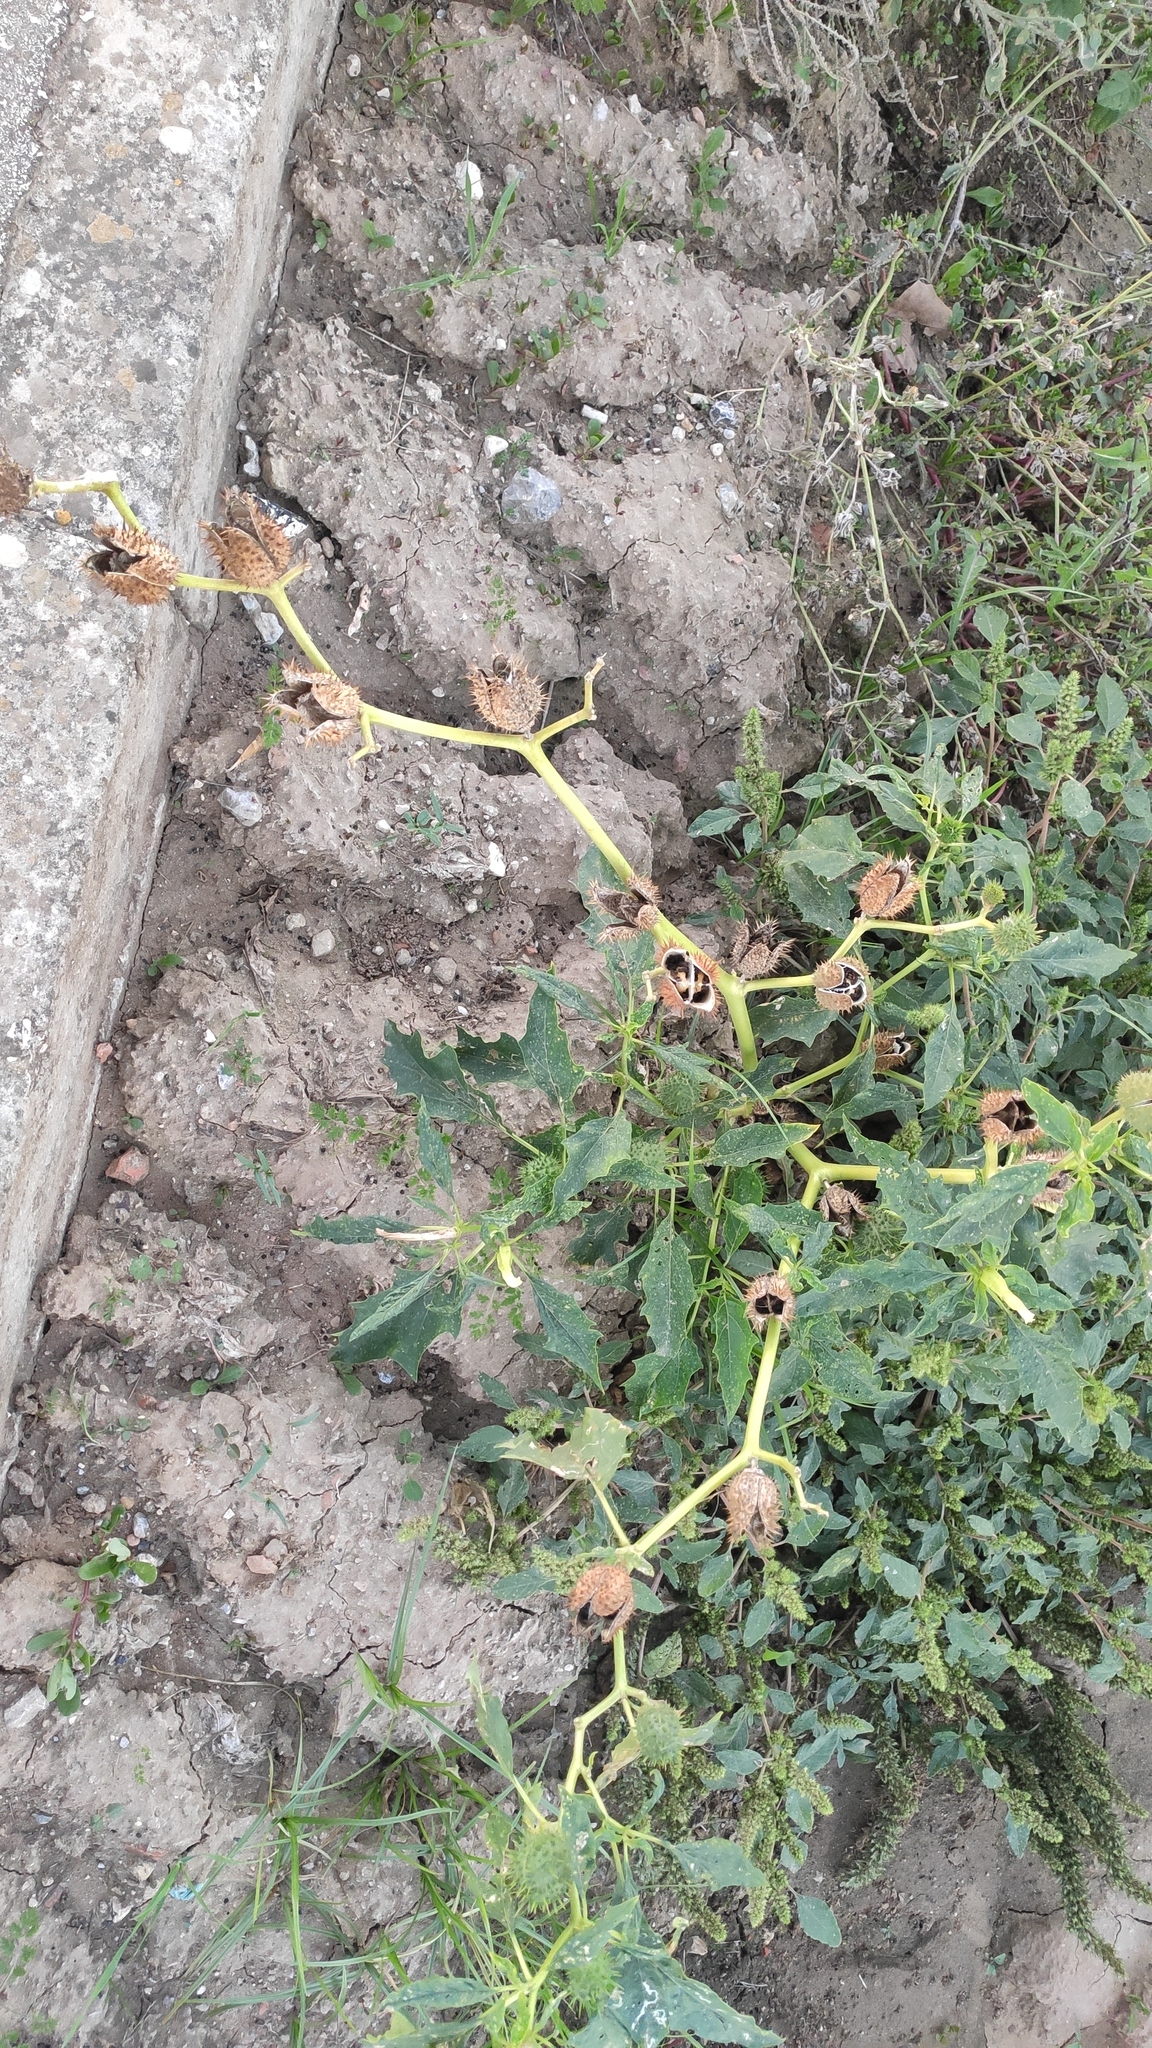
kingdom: Plantae
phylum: Tracheophyta
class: Magnoliopsida
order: Solanales
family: Solanaceae
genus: Datura
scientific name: Datura stramonium
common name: Thorn-apple
